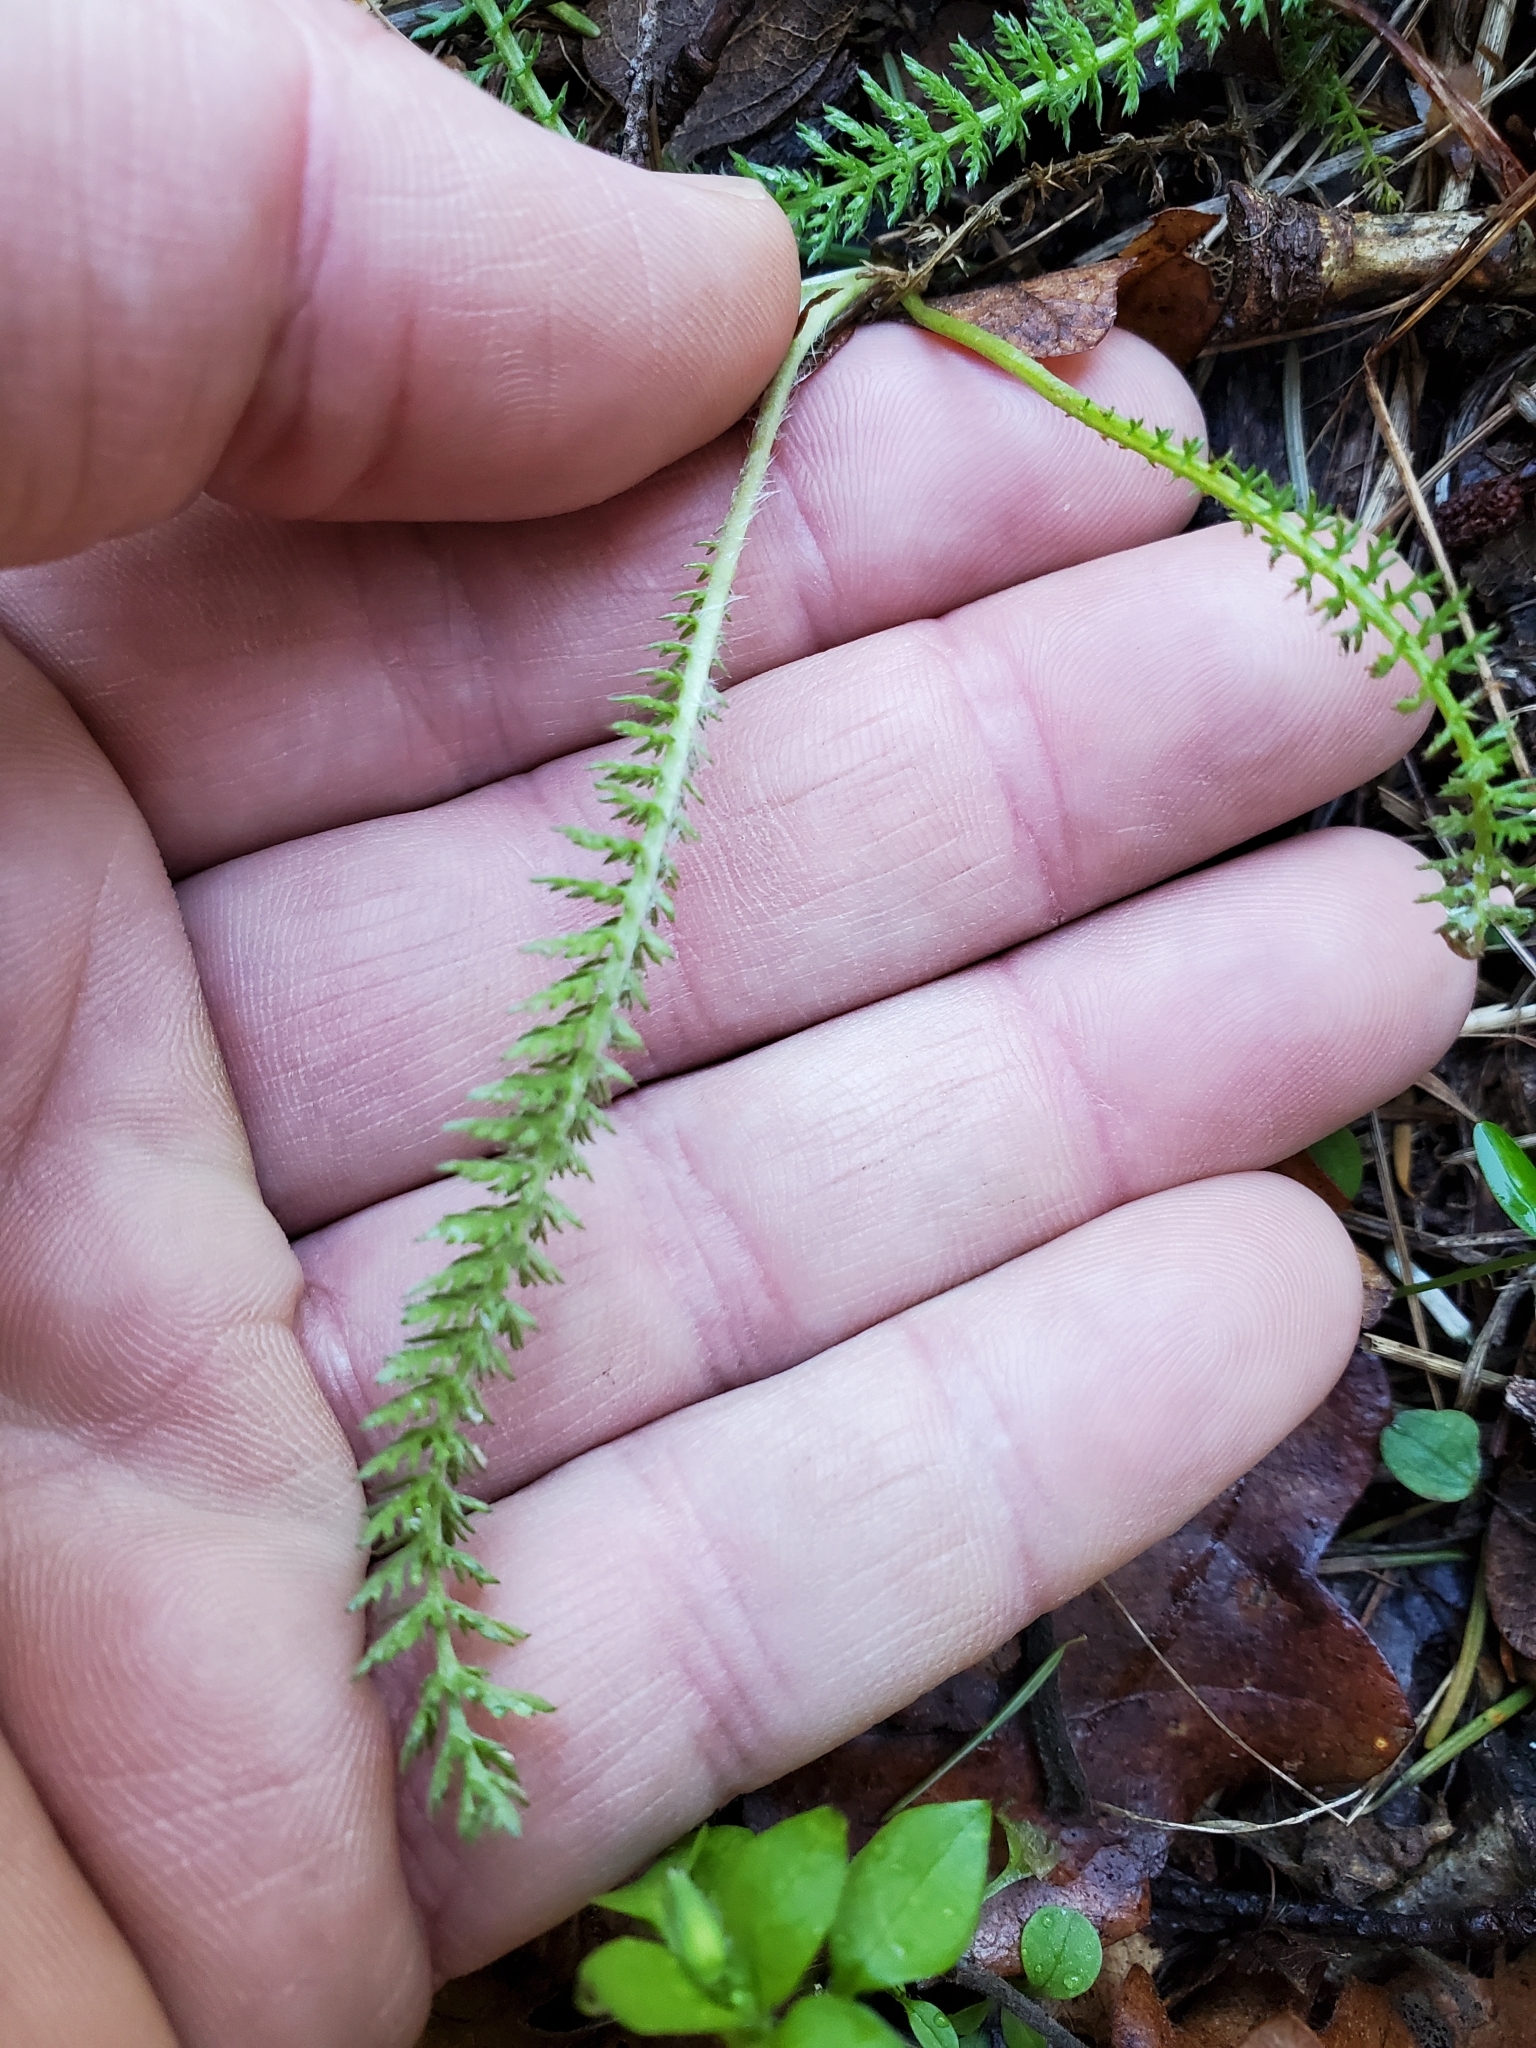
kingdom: Plantae
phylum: Tracheophyta
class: Magnoliopsida
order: Asterales
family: Asteraceae
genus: Achillea
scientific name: Achillea millefolium
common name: Yarrow
